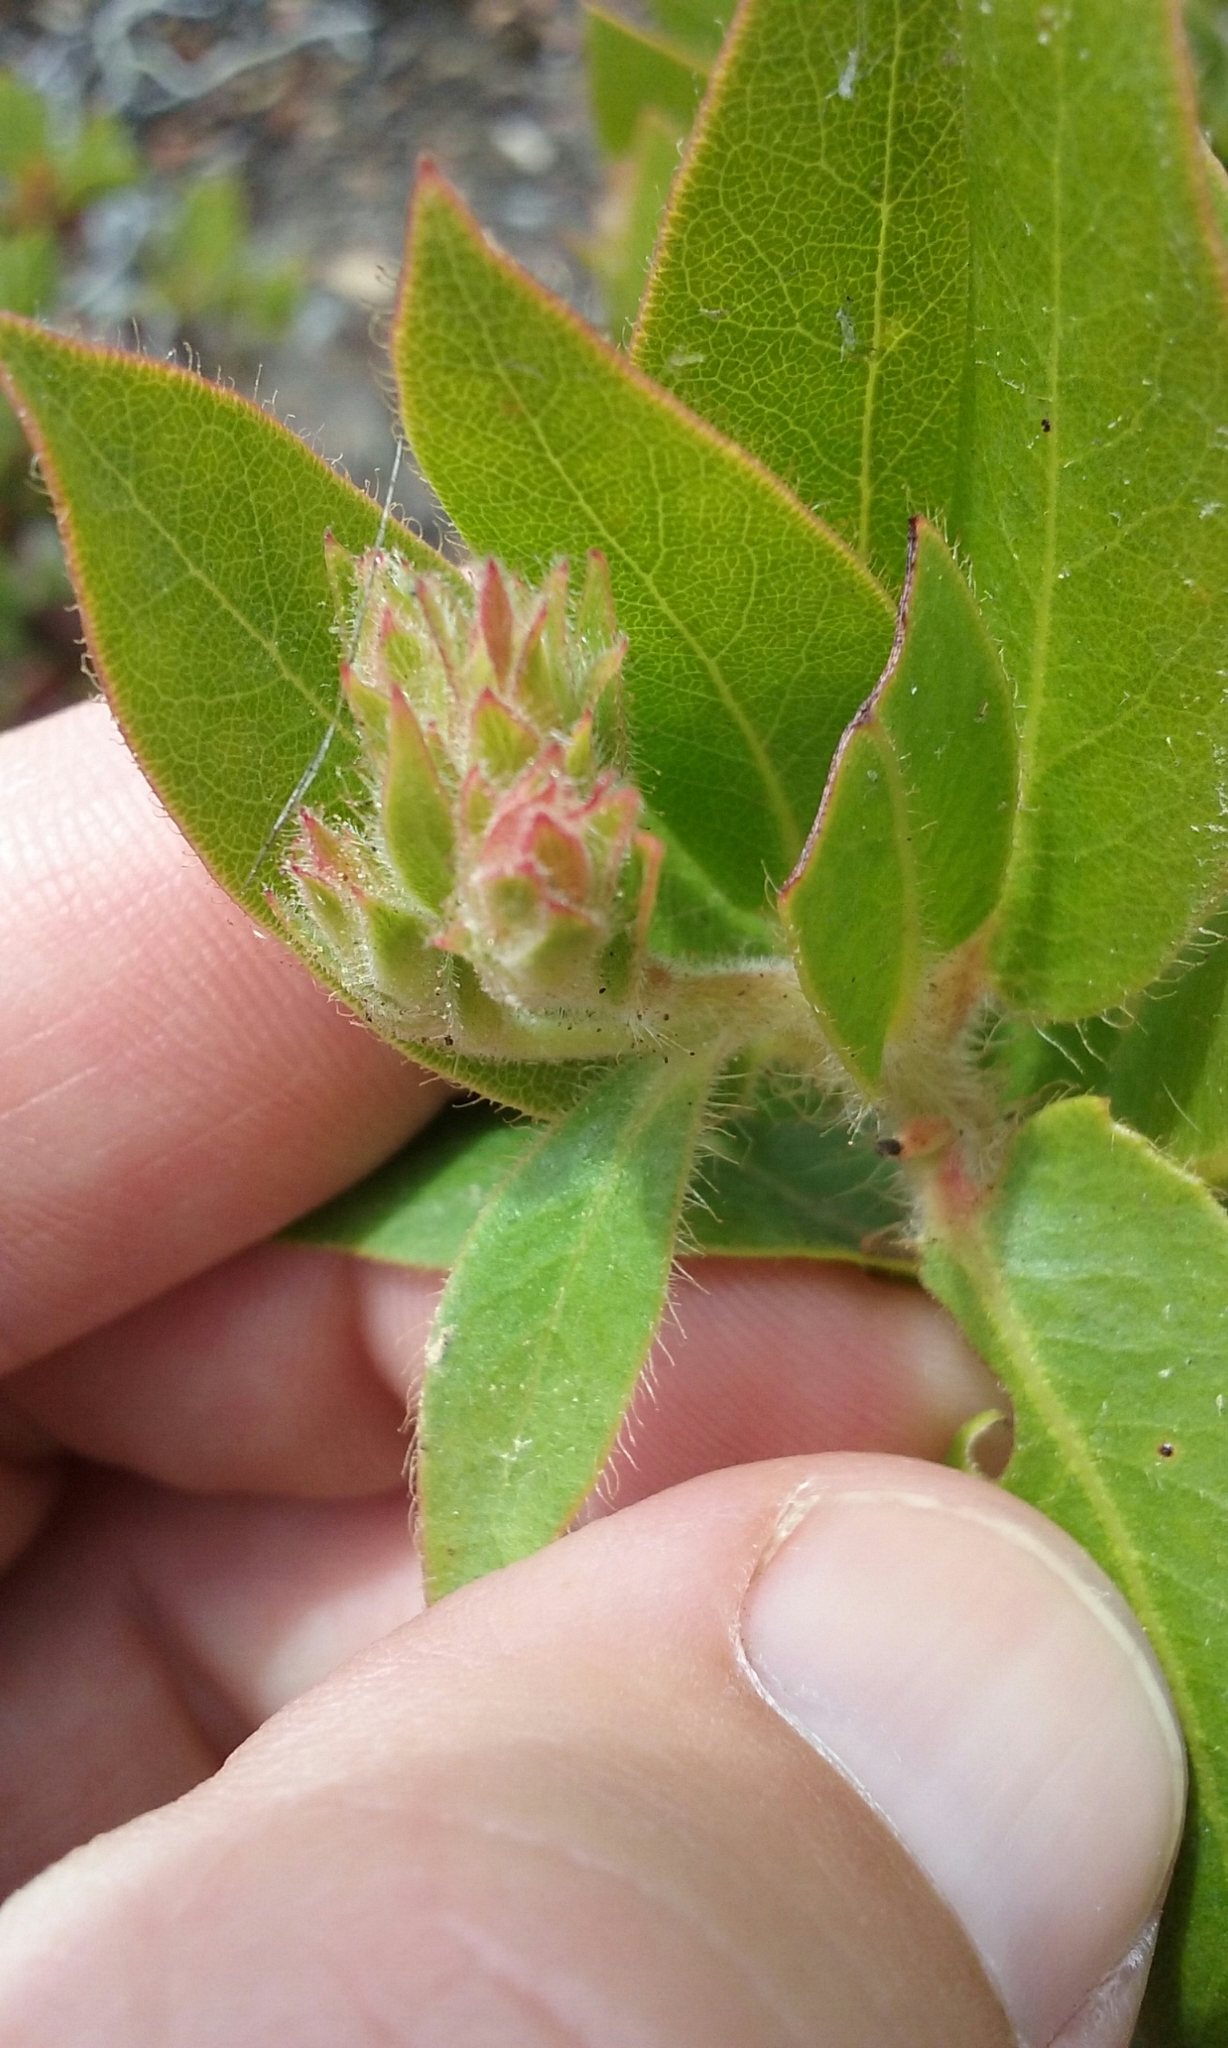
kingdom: Plantae
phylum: Tracheophyta
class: Magnoliopsida
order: Ericales
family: Ericaceae
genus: Arctostaphylos
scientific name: Arctostaphylos montaraensis
